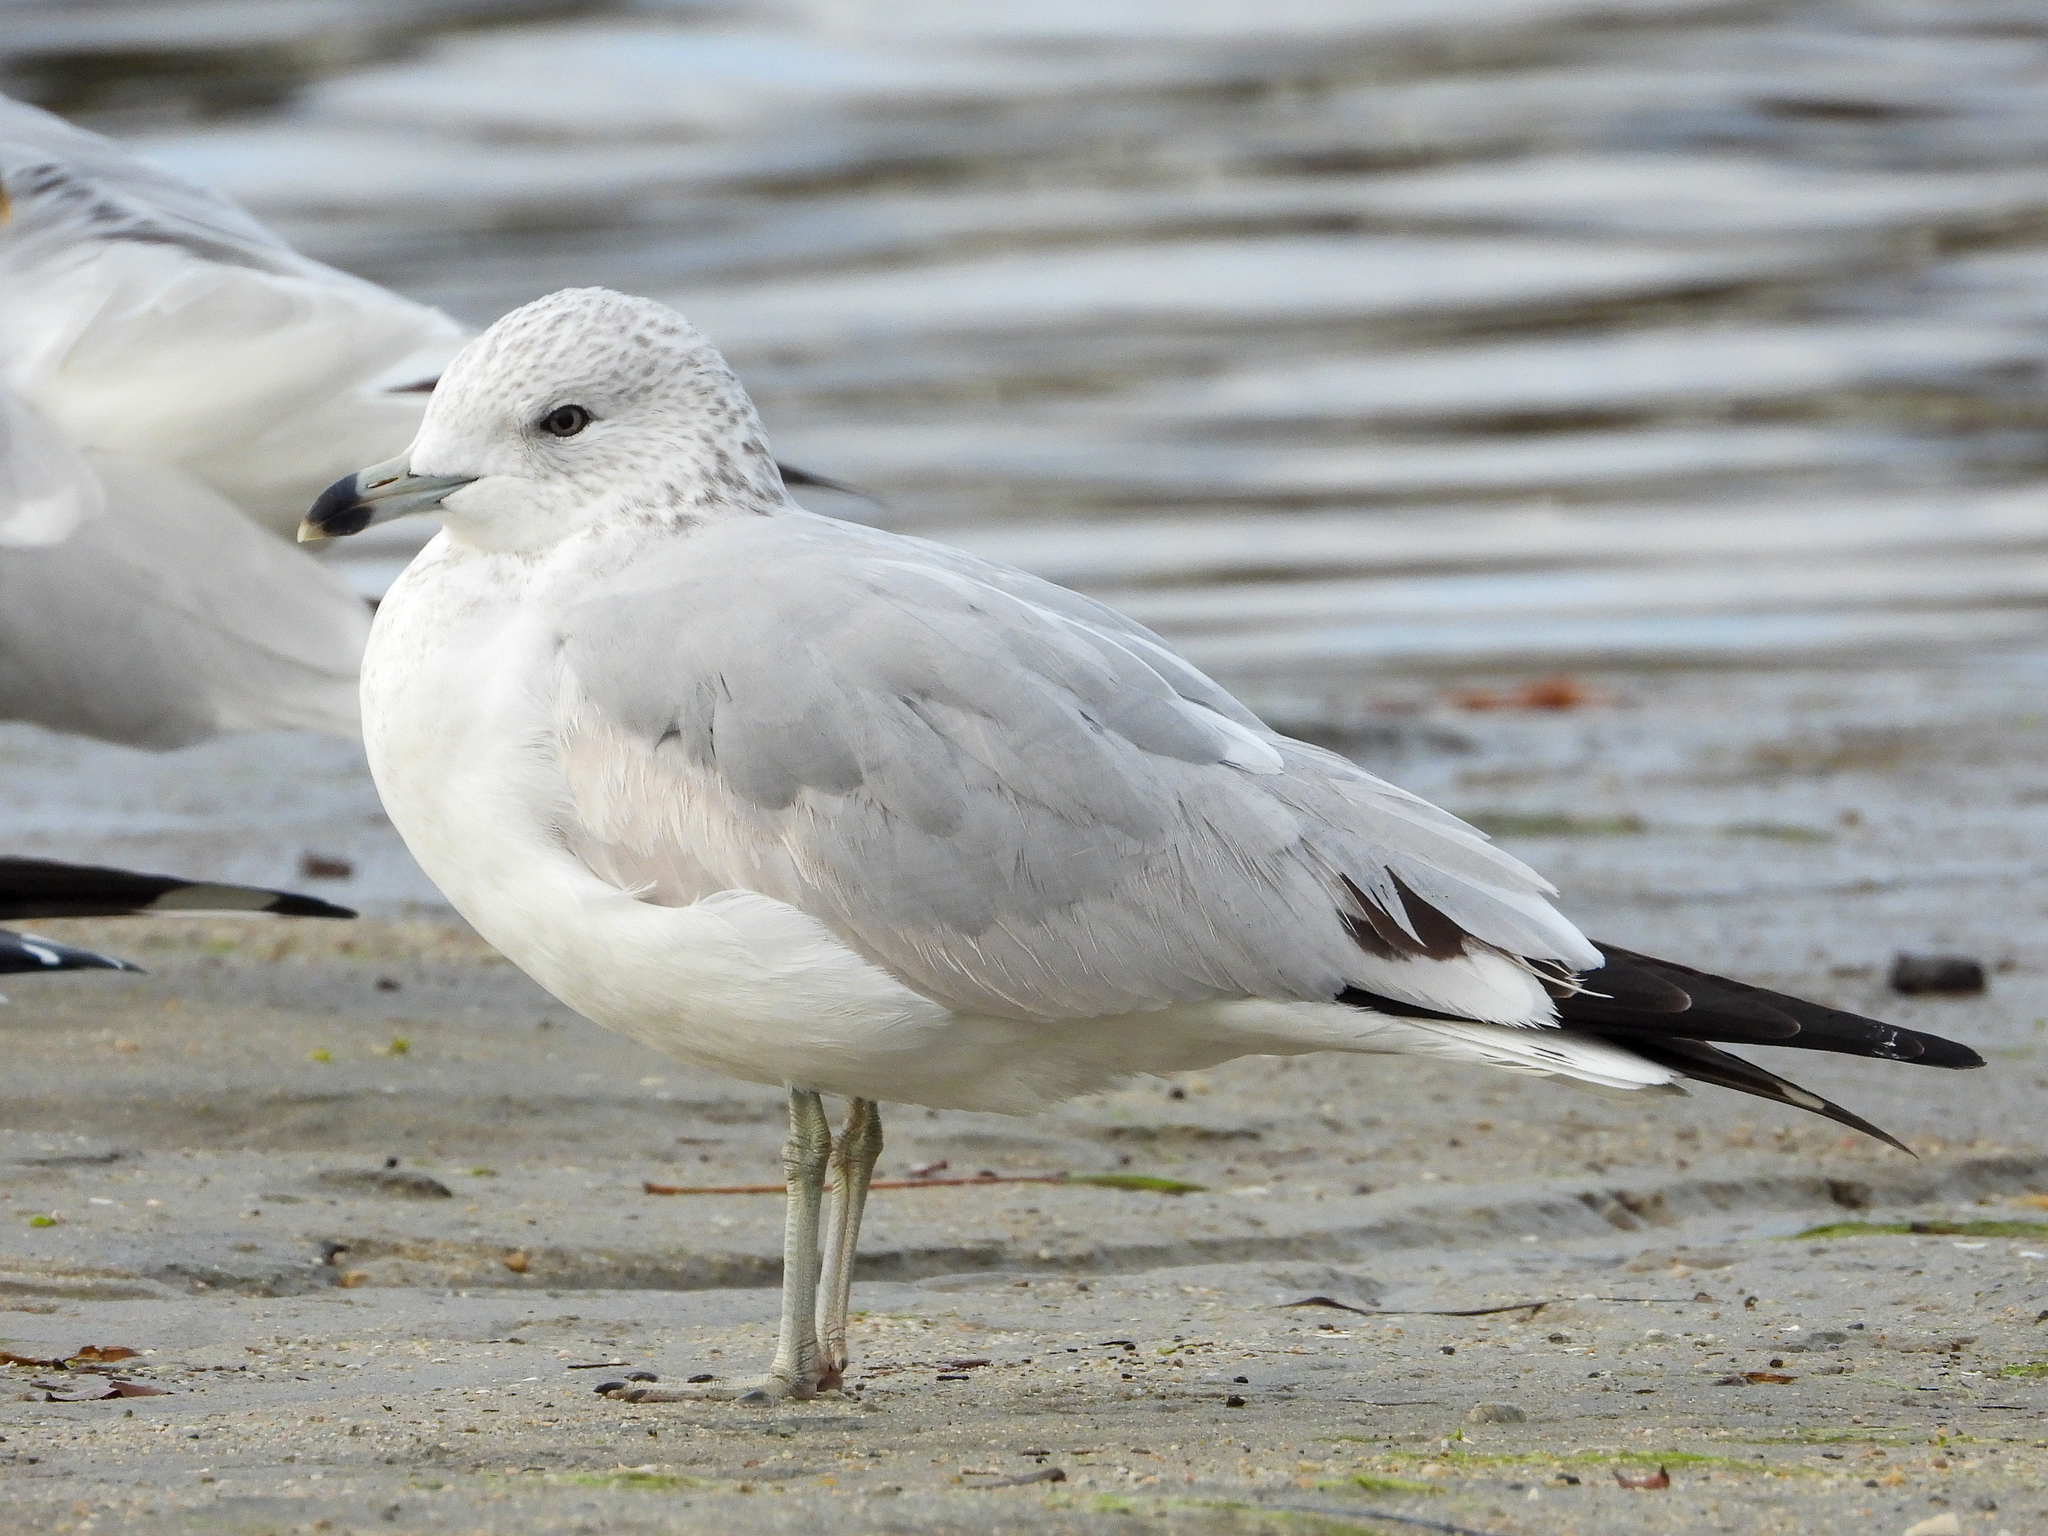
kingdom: Animalia
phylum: Chordata
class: Aves
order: Charadriiformes
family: Laridae
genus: Larus
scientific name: Larus delawarensis
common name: Ring-billed gull
